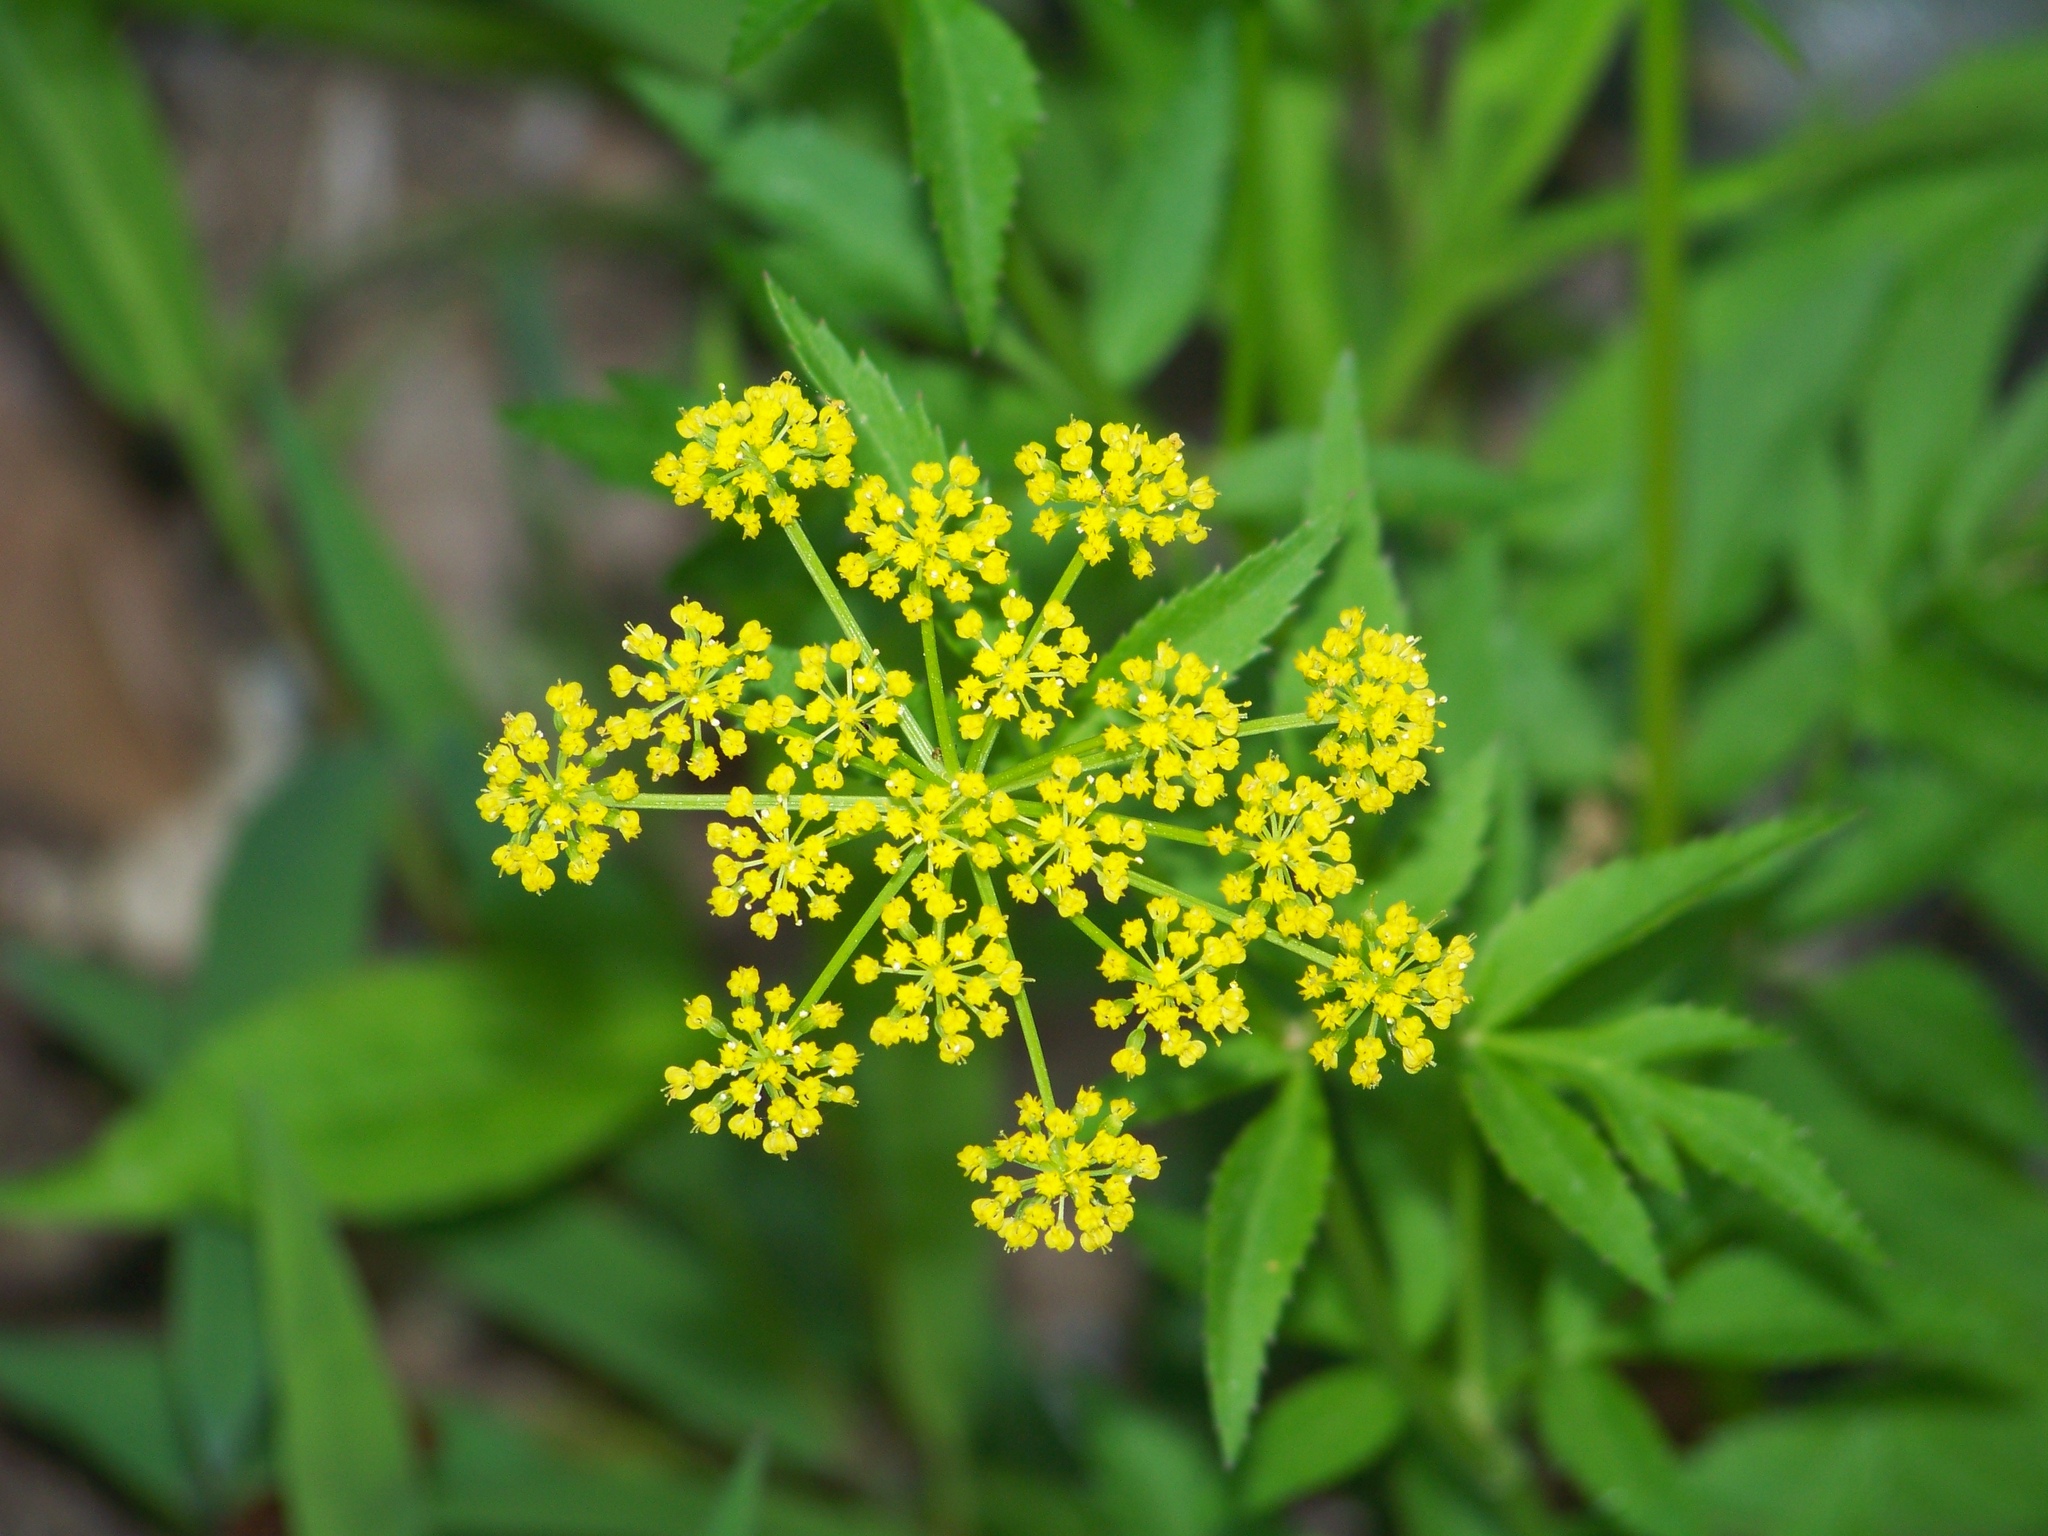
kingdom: Plantae
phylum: Tracheophyta
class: Magnoliopsida
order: Apiales
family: Apiaceae
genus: Zizia
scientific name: Zizia aurea
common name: Golden alexanders
